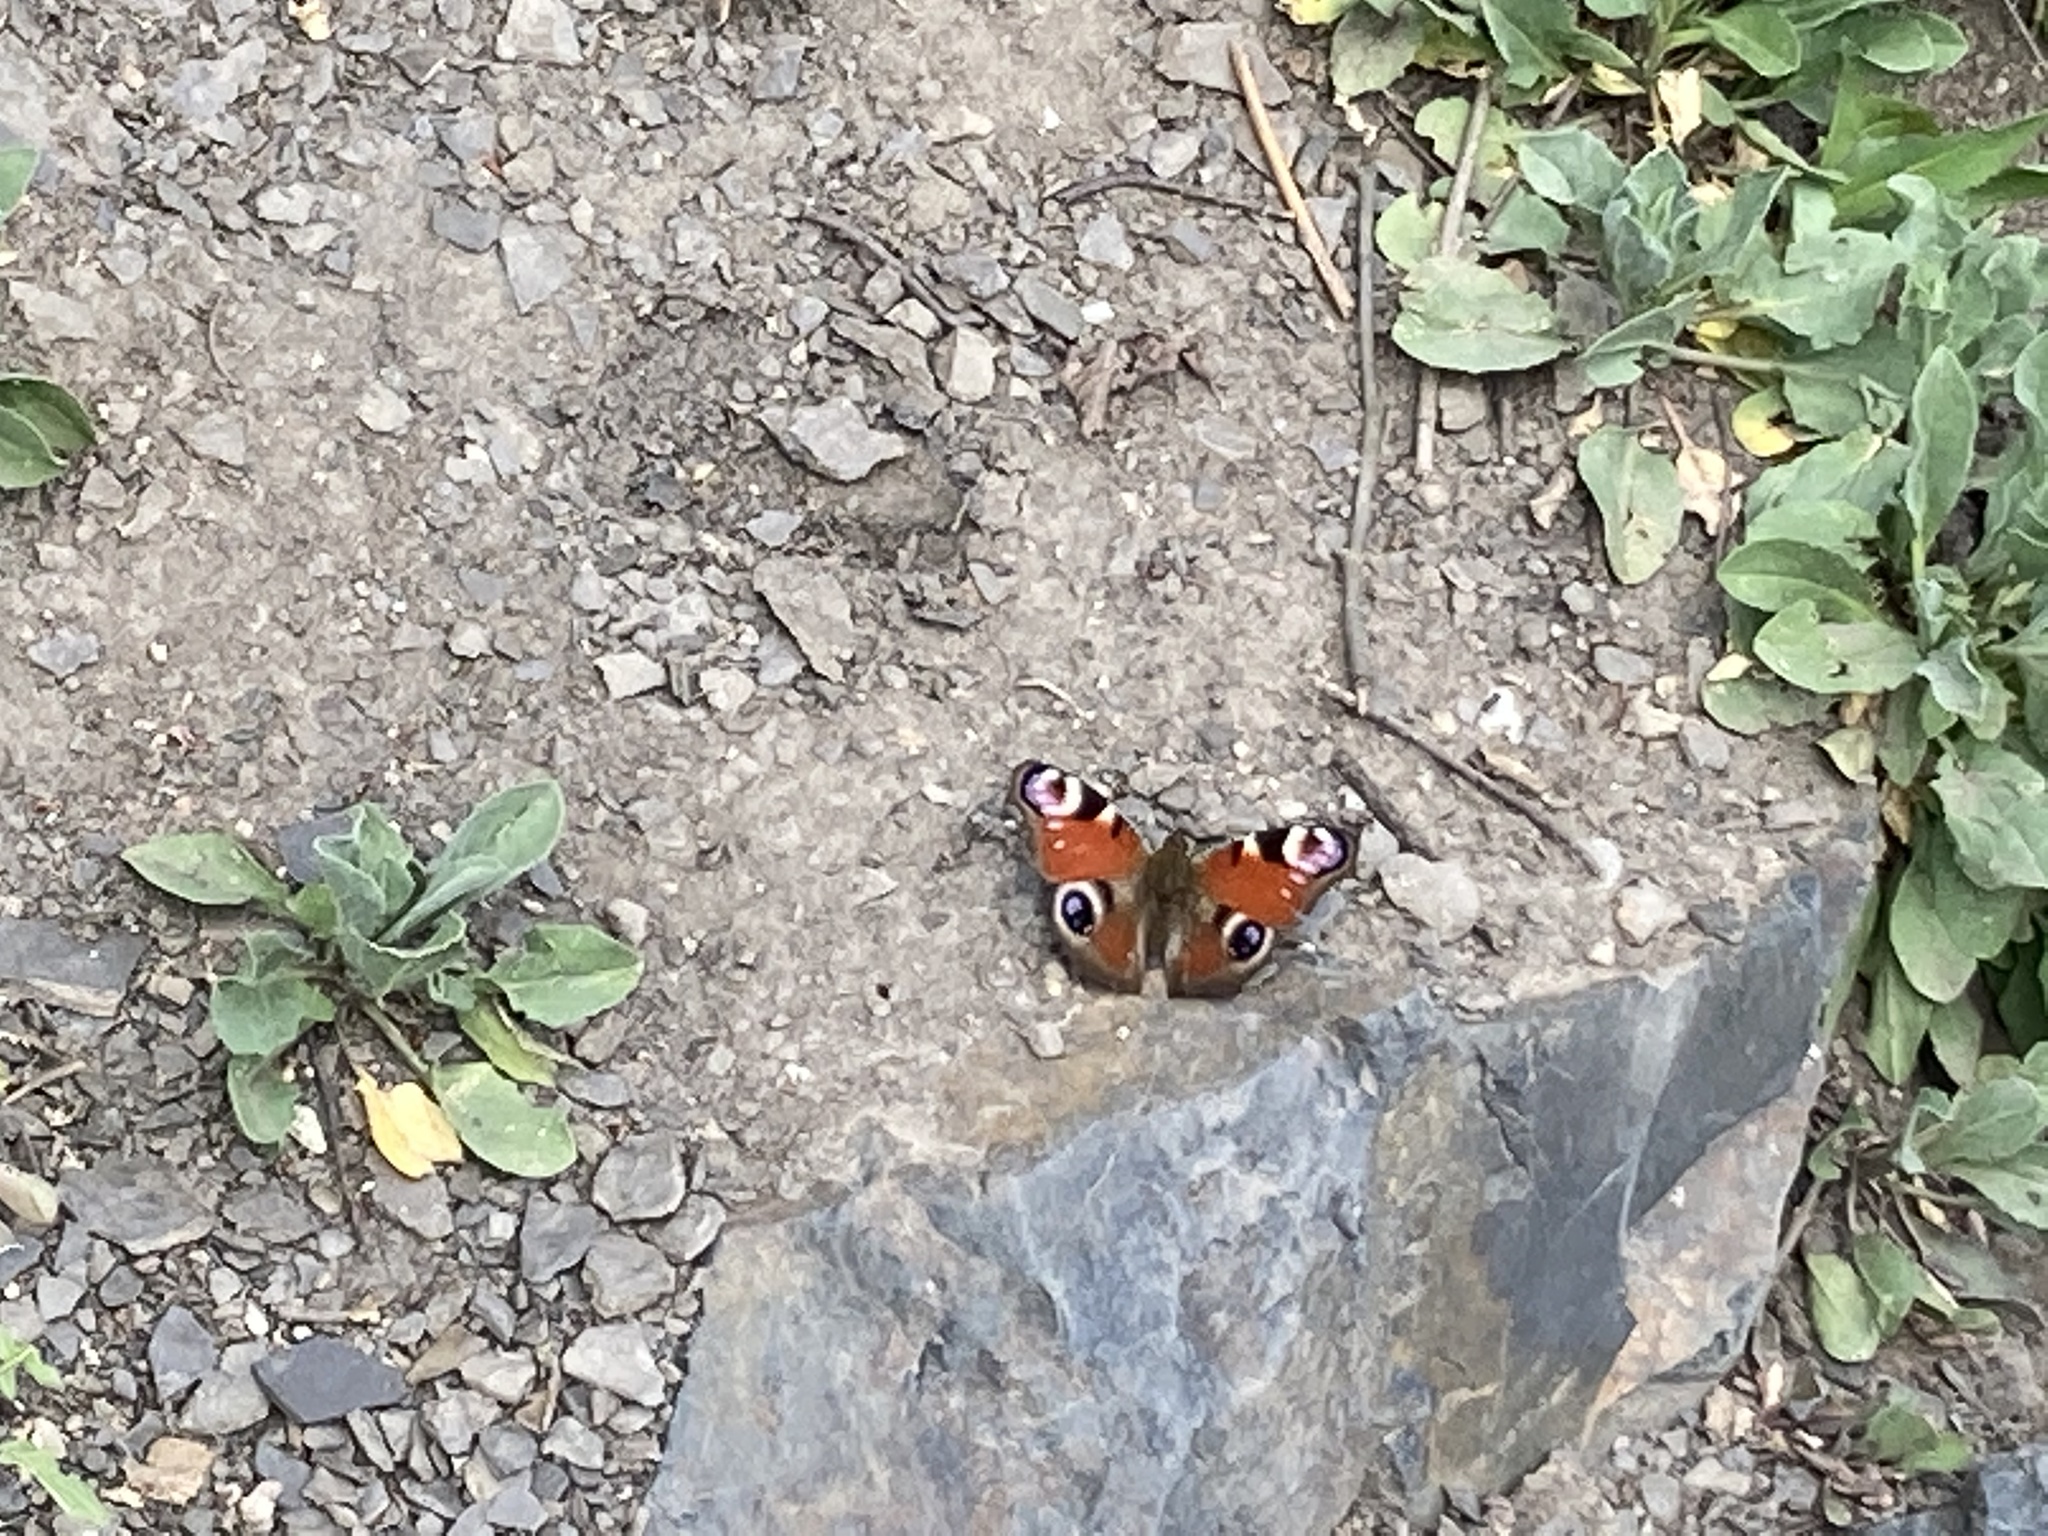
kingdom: Animalia
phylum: Arthropoda
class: Insecta
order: Lepidoptera
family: Nymphalidae
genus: Aglais
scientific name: Aglais io
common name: Peacock
